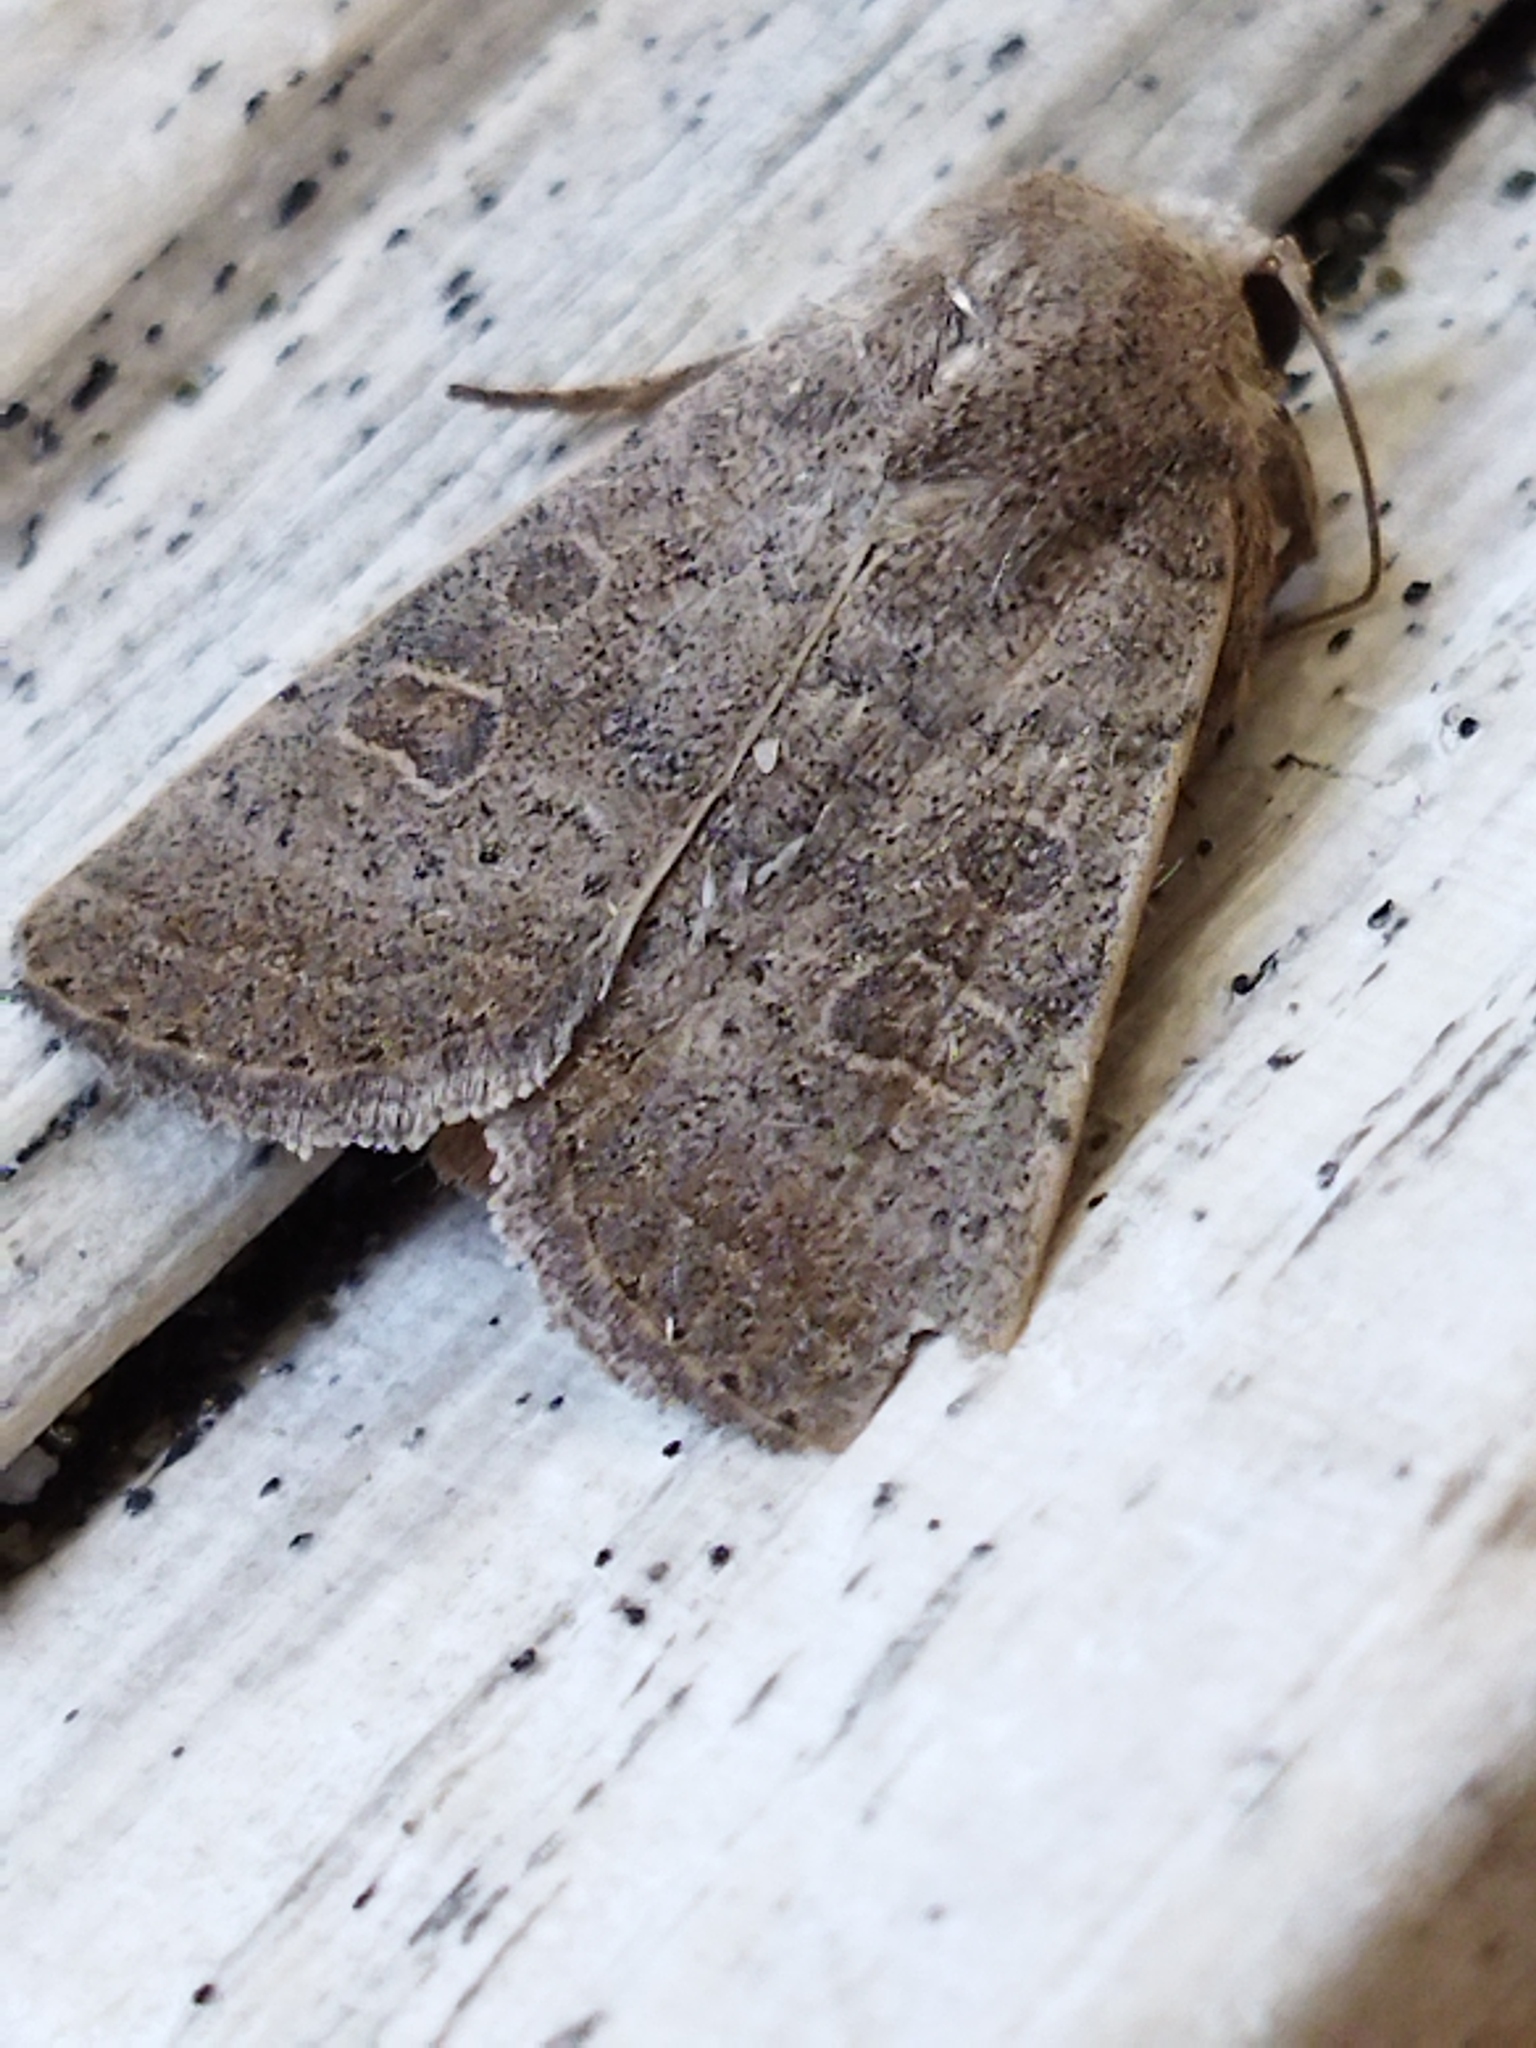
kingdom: Animalia
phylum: Arthropoda
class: Insecta
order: Lepidoptera
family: Noctuidae
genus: Hoplodrina
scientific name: Hoplodrina ambigua
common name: Vine's rustic
